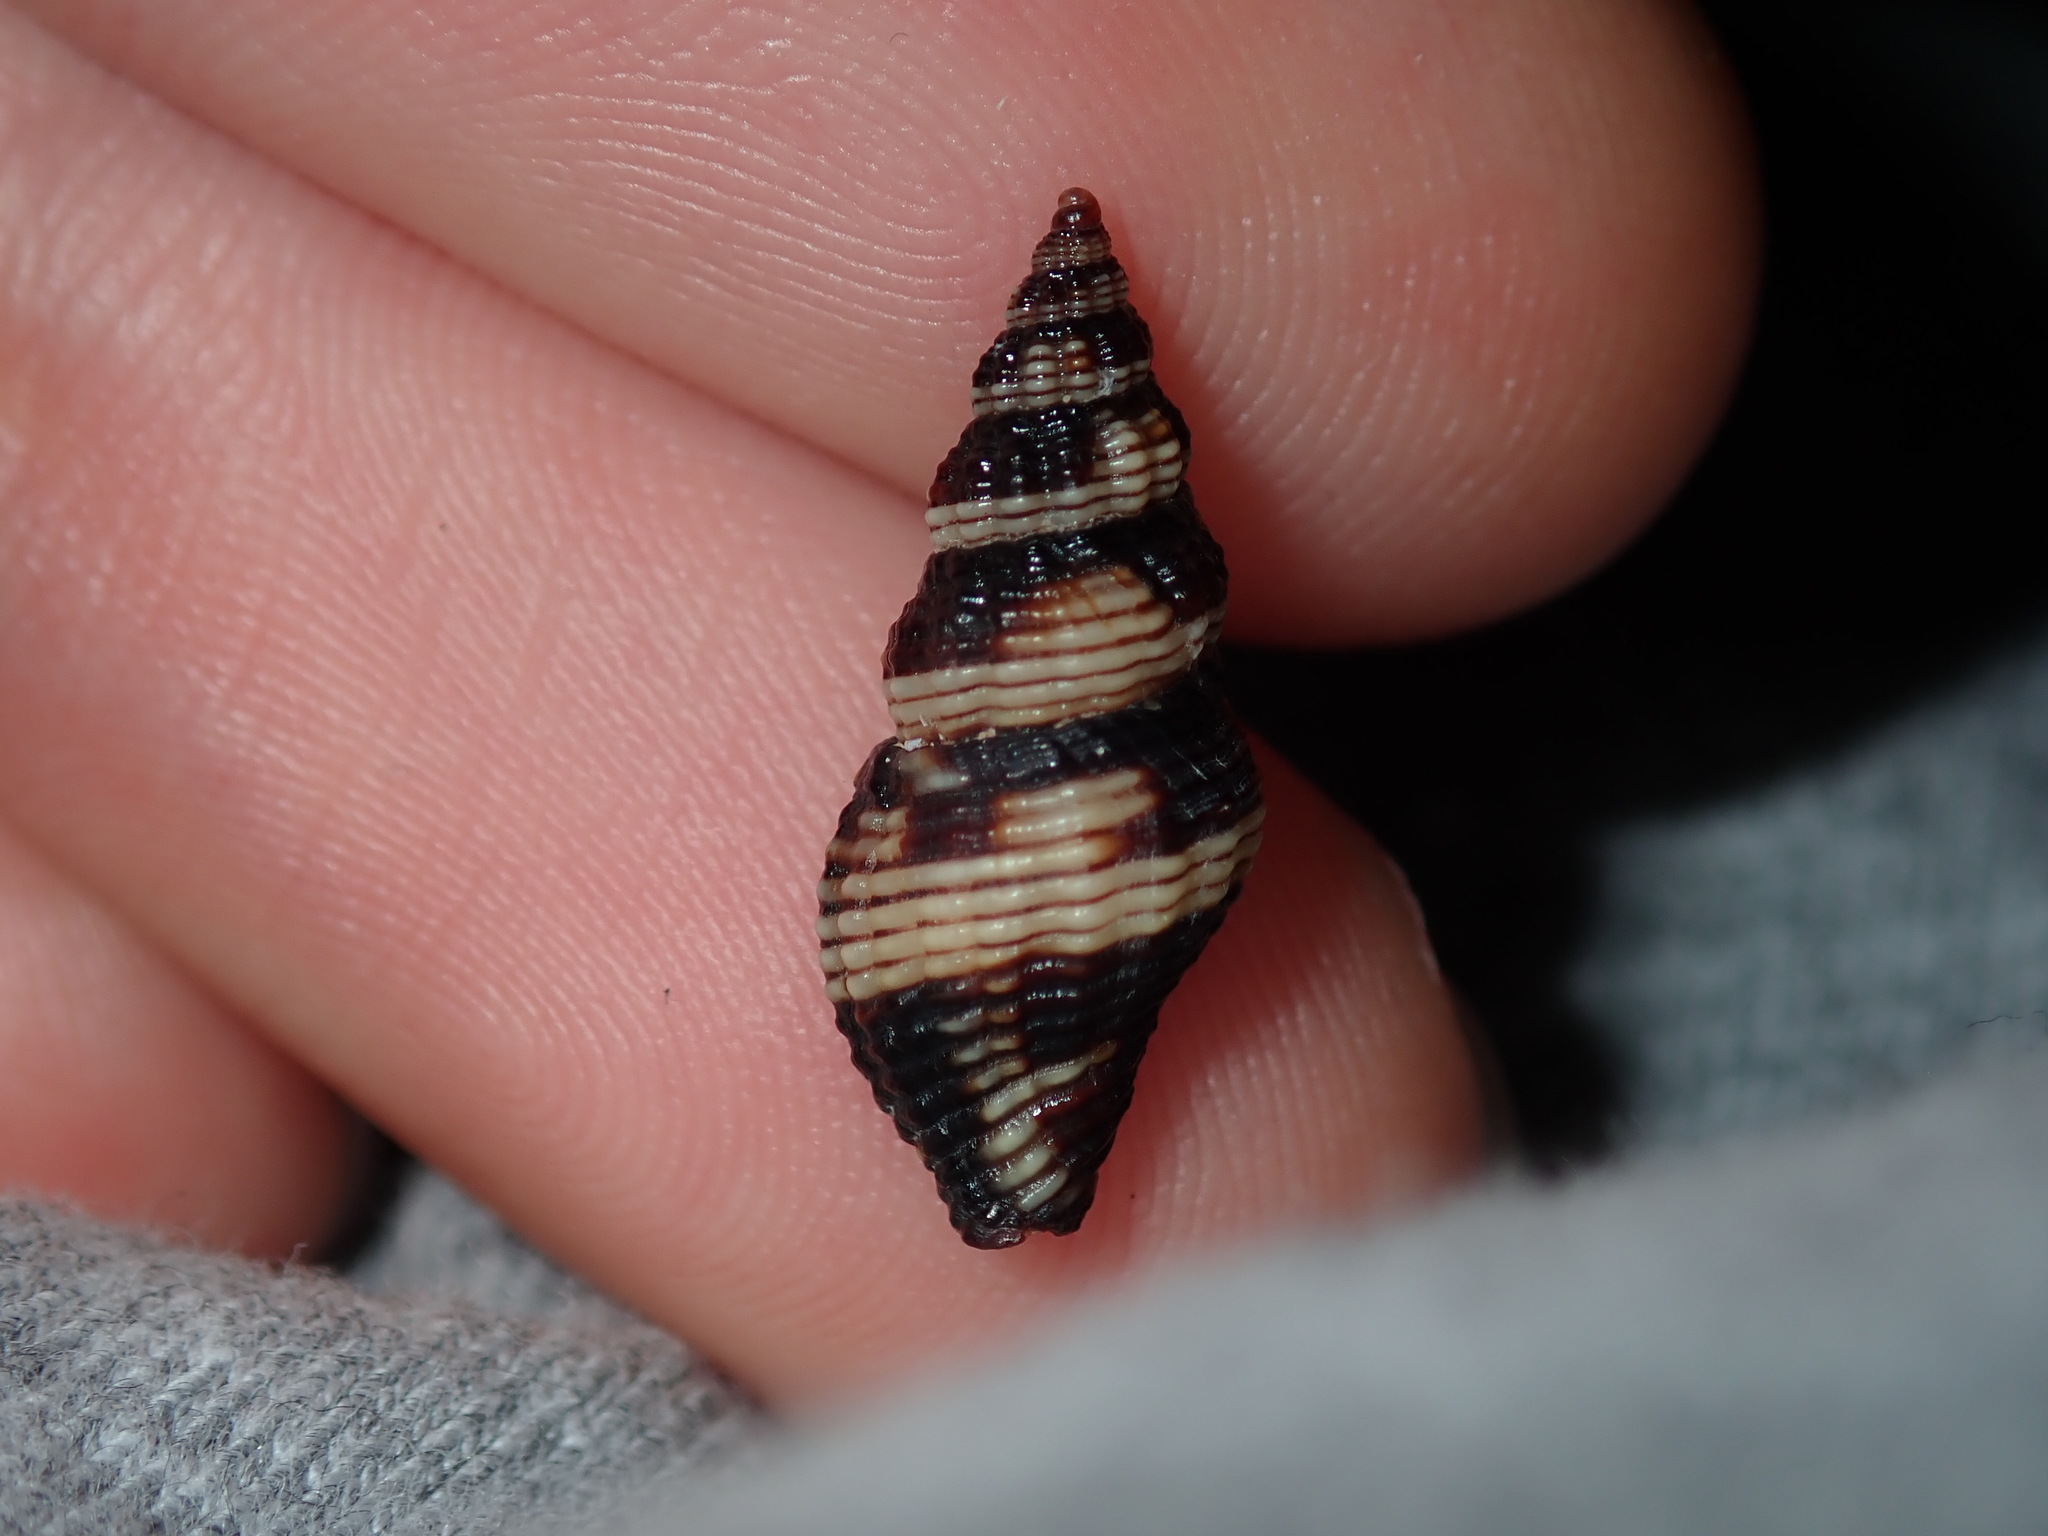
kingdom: Animalia
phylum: Mollusca
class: Gastropoda
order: Neogastropoda
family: Pisaniidae
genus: Engina
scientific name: Engina australis
